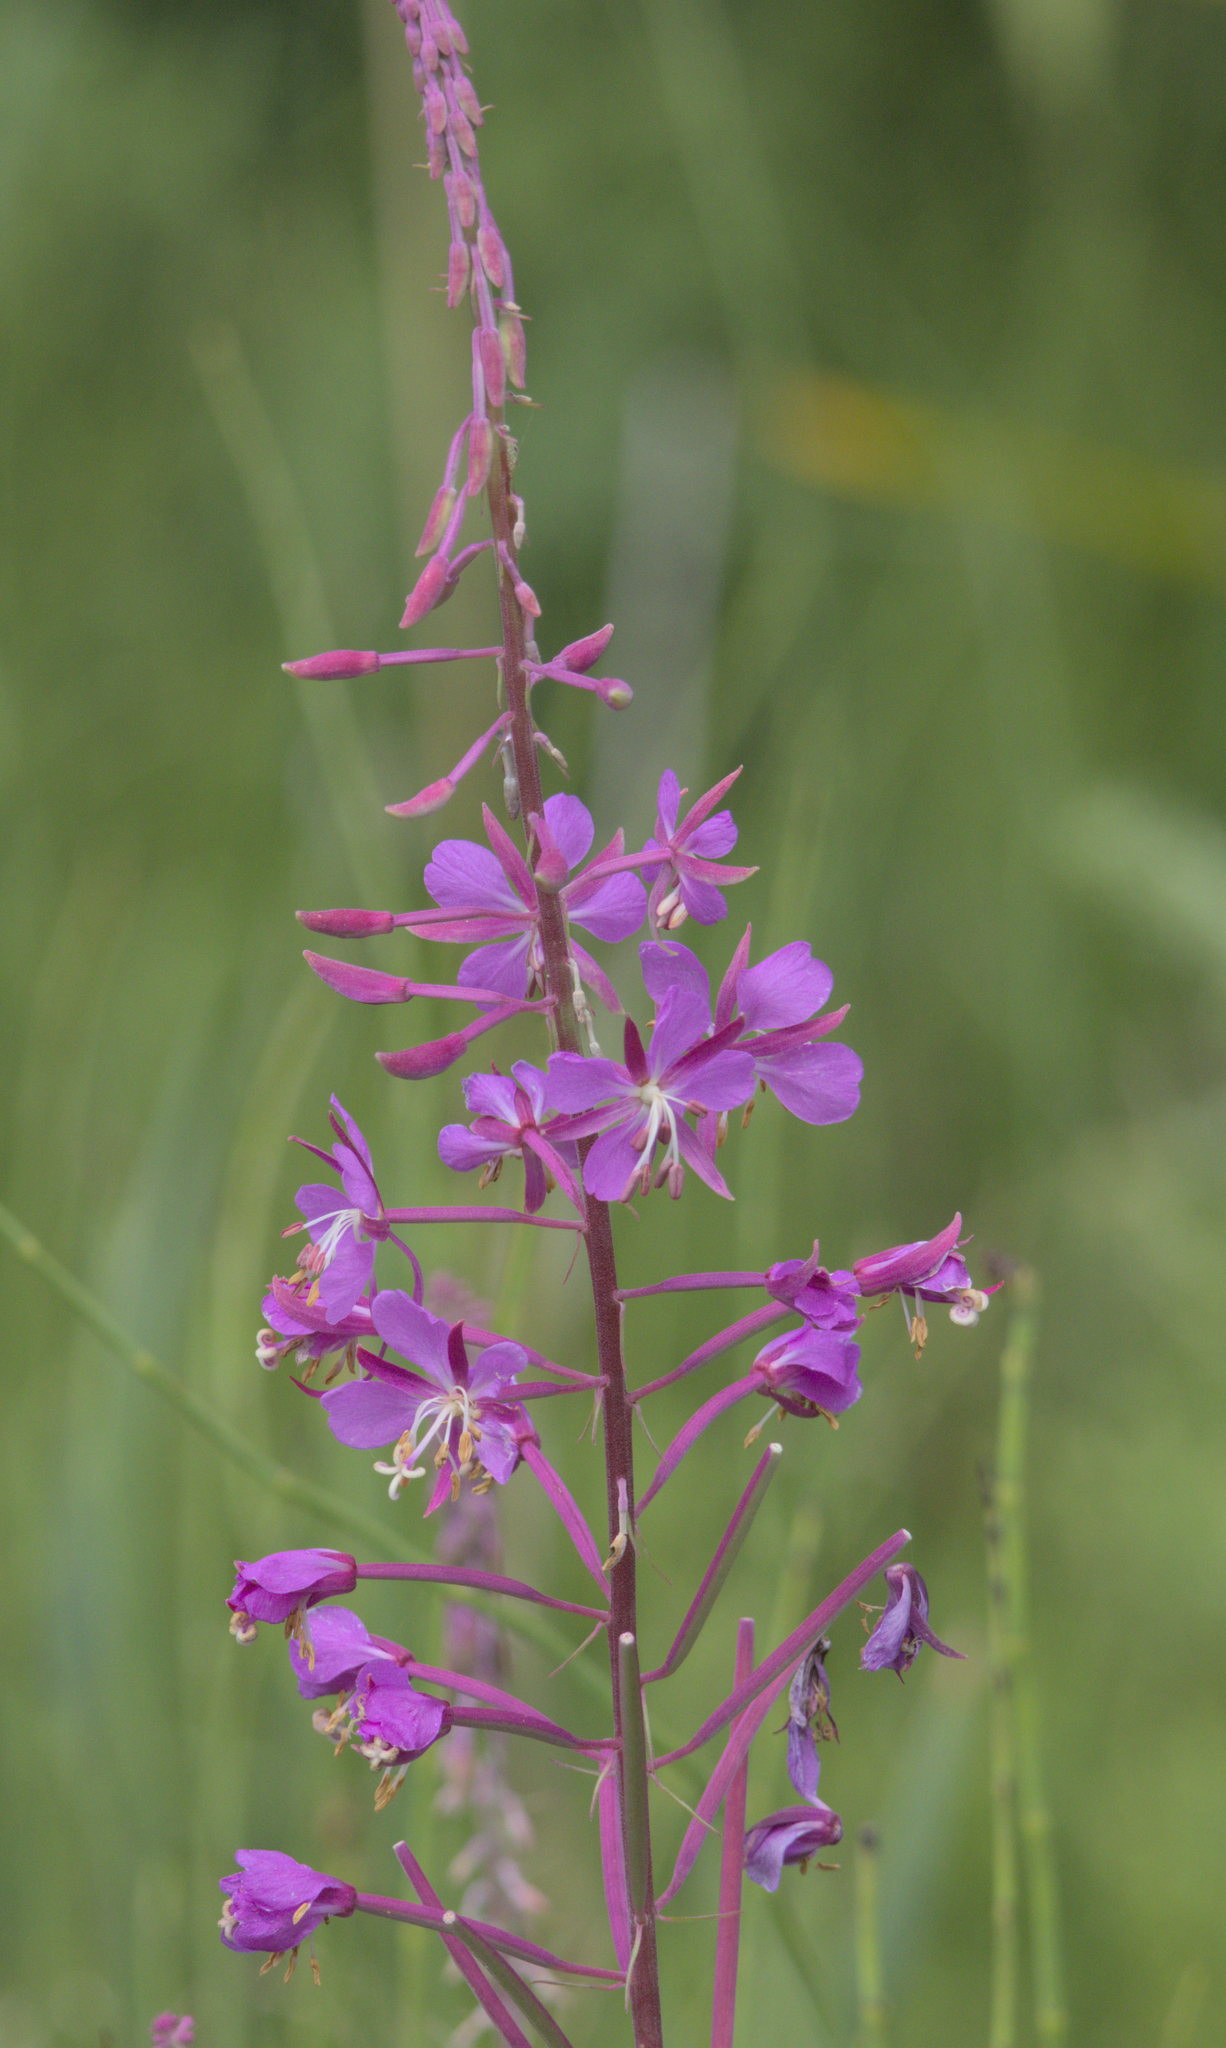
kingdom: Plantae
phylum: Tracheophyta
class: Magnoliopsida
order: Myrtales
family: Onagraceae
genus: Chamaenerion
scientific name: Chamaenerion angustifolium
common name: Fireweed
